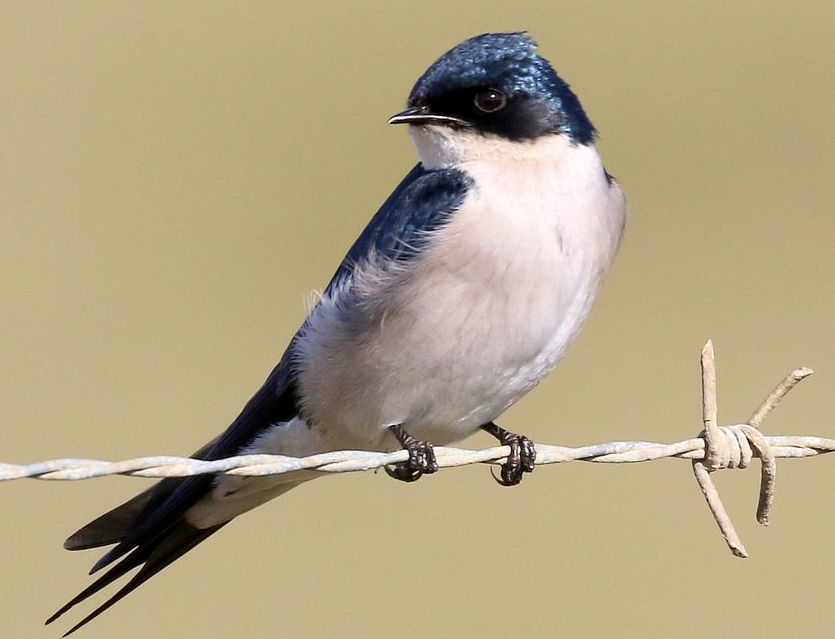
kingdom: Animalia
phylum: Chordata
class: Aves
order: Passeriformes
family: Hirundinidae
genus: Hirundo
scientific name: Hirundo dimidiata
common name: Pearl-breasted swallow
